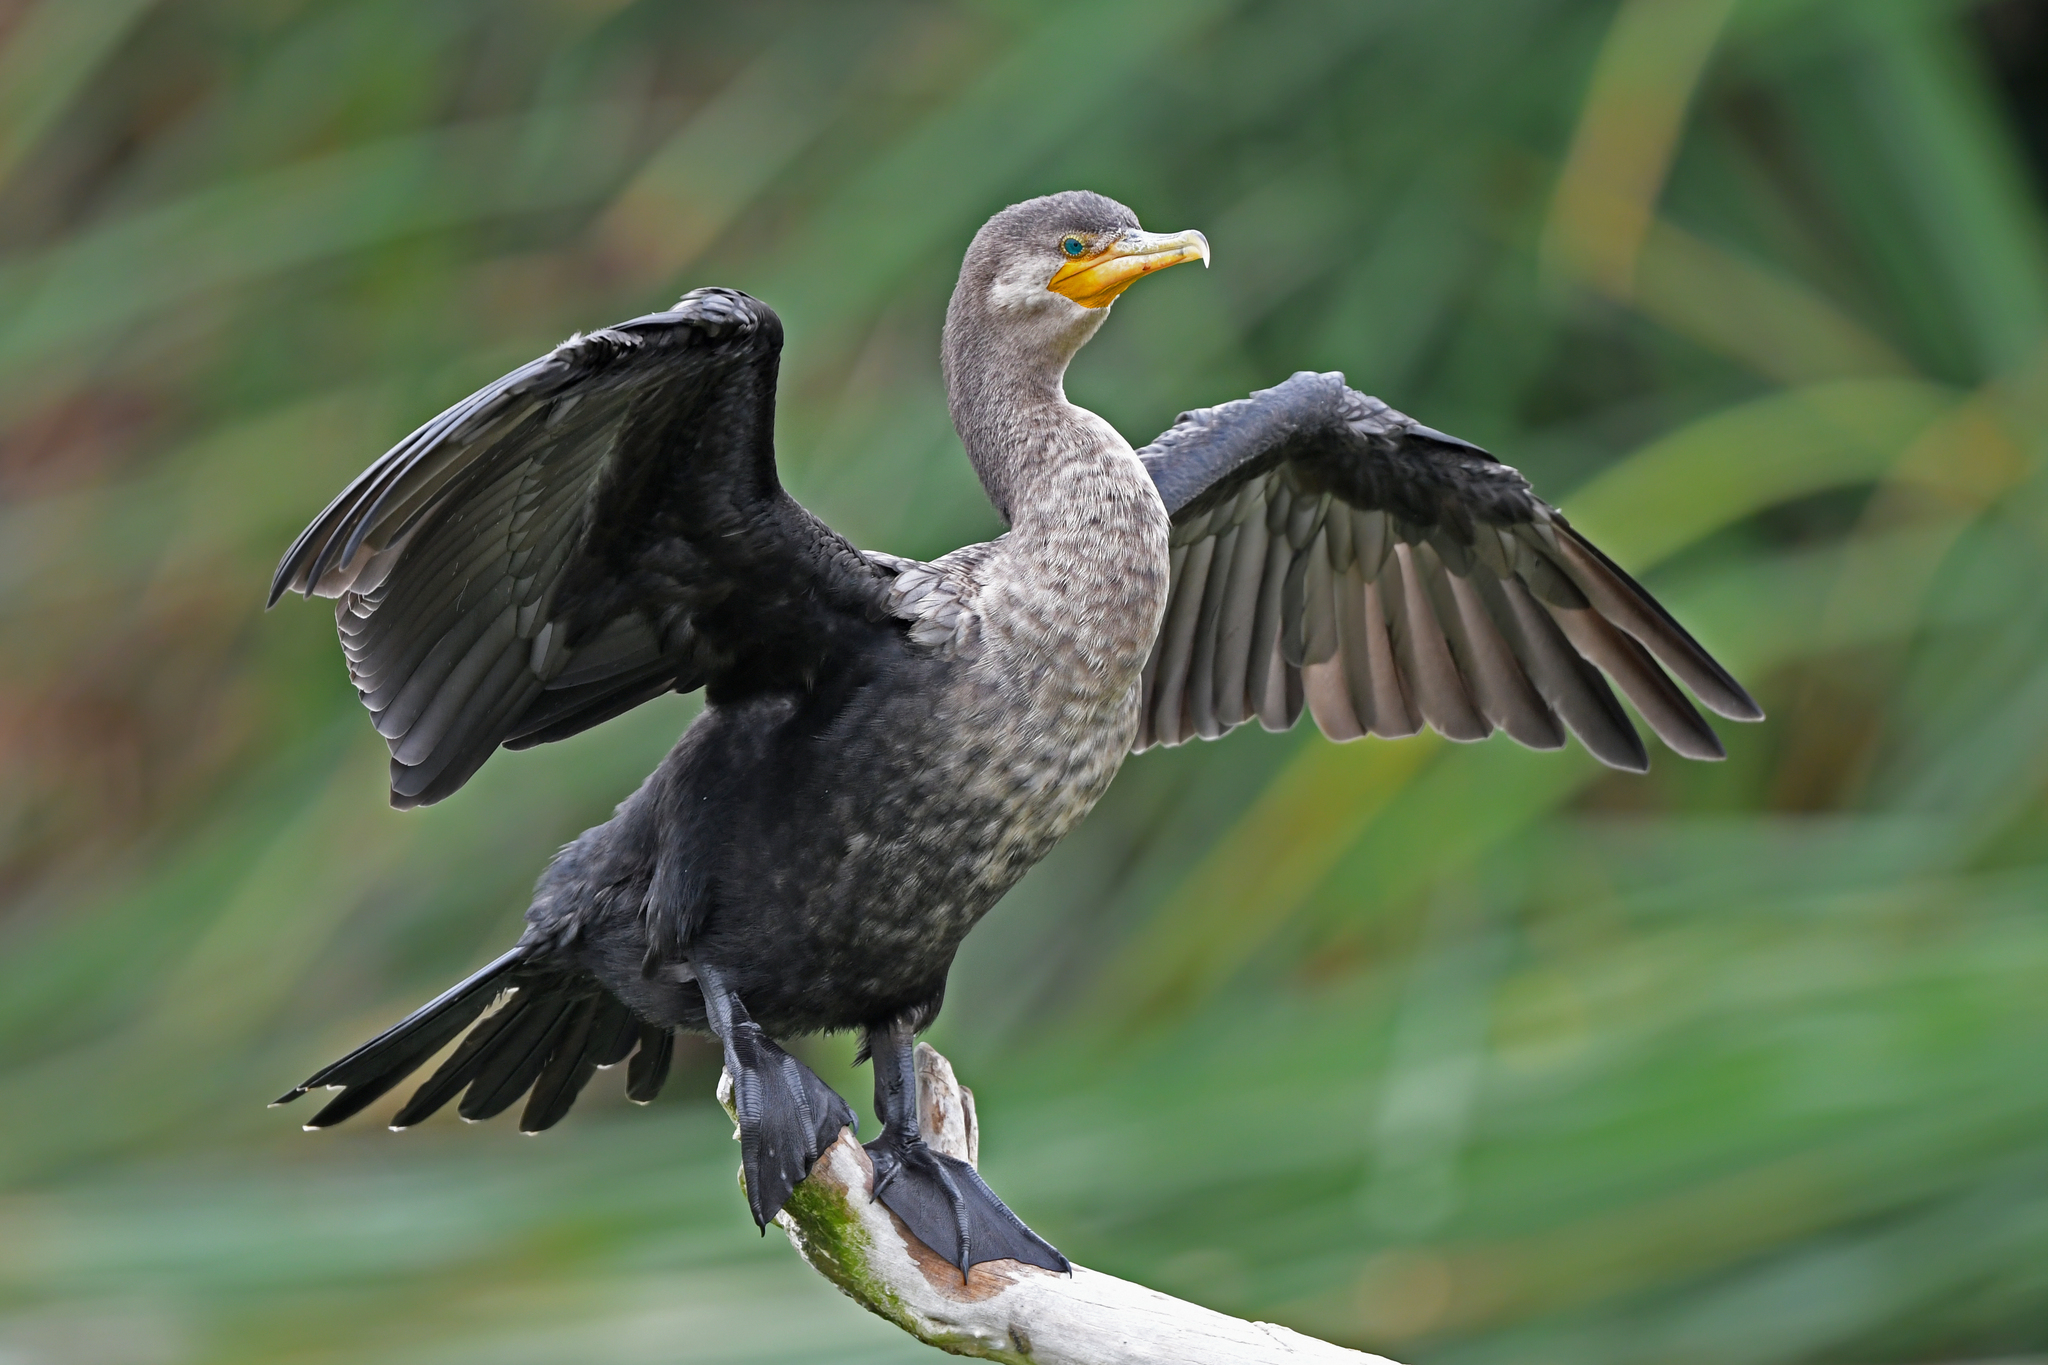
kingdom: Animalia
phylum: Chordata
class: Aves
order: Suliformes
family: Phalacrocoracidae
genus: Phalacrocorax
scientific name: Phalacrocorax brasilianus
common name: Neotropic cormorant
